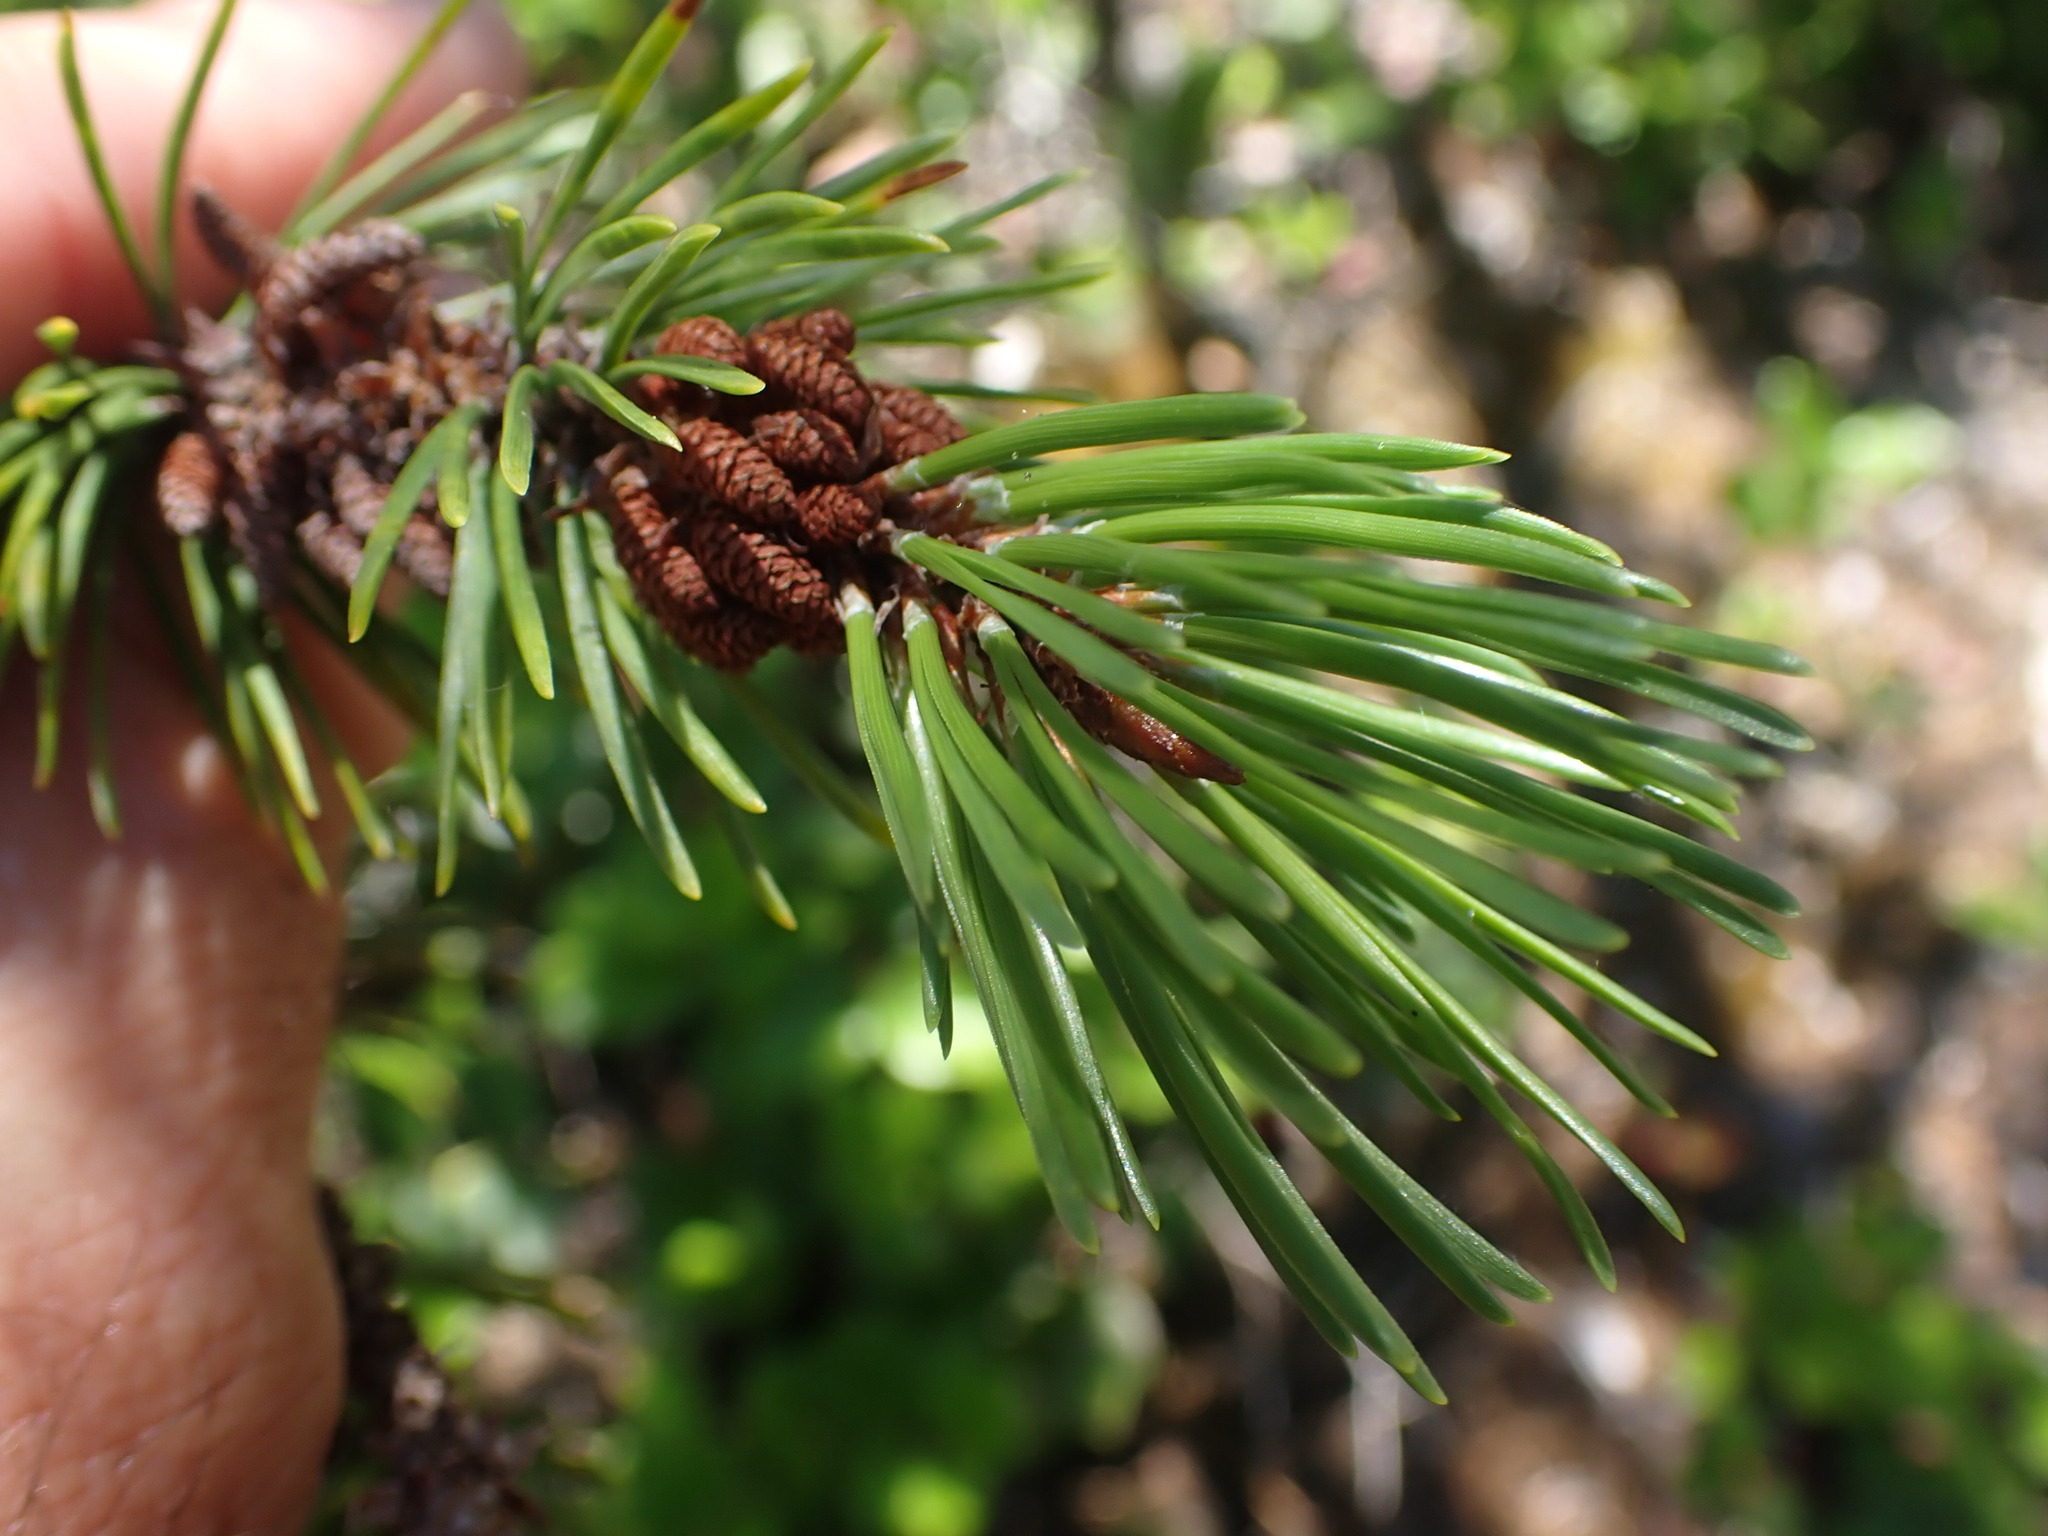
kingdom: Plantae
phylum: Tracheophyta
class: Pinopsida
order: Pinales
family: Pinaceae
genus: Pinus
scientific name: Pinus contorta
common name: Lodgepole pine
